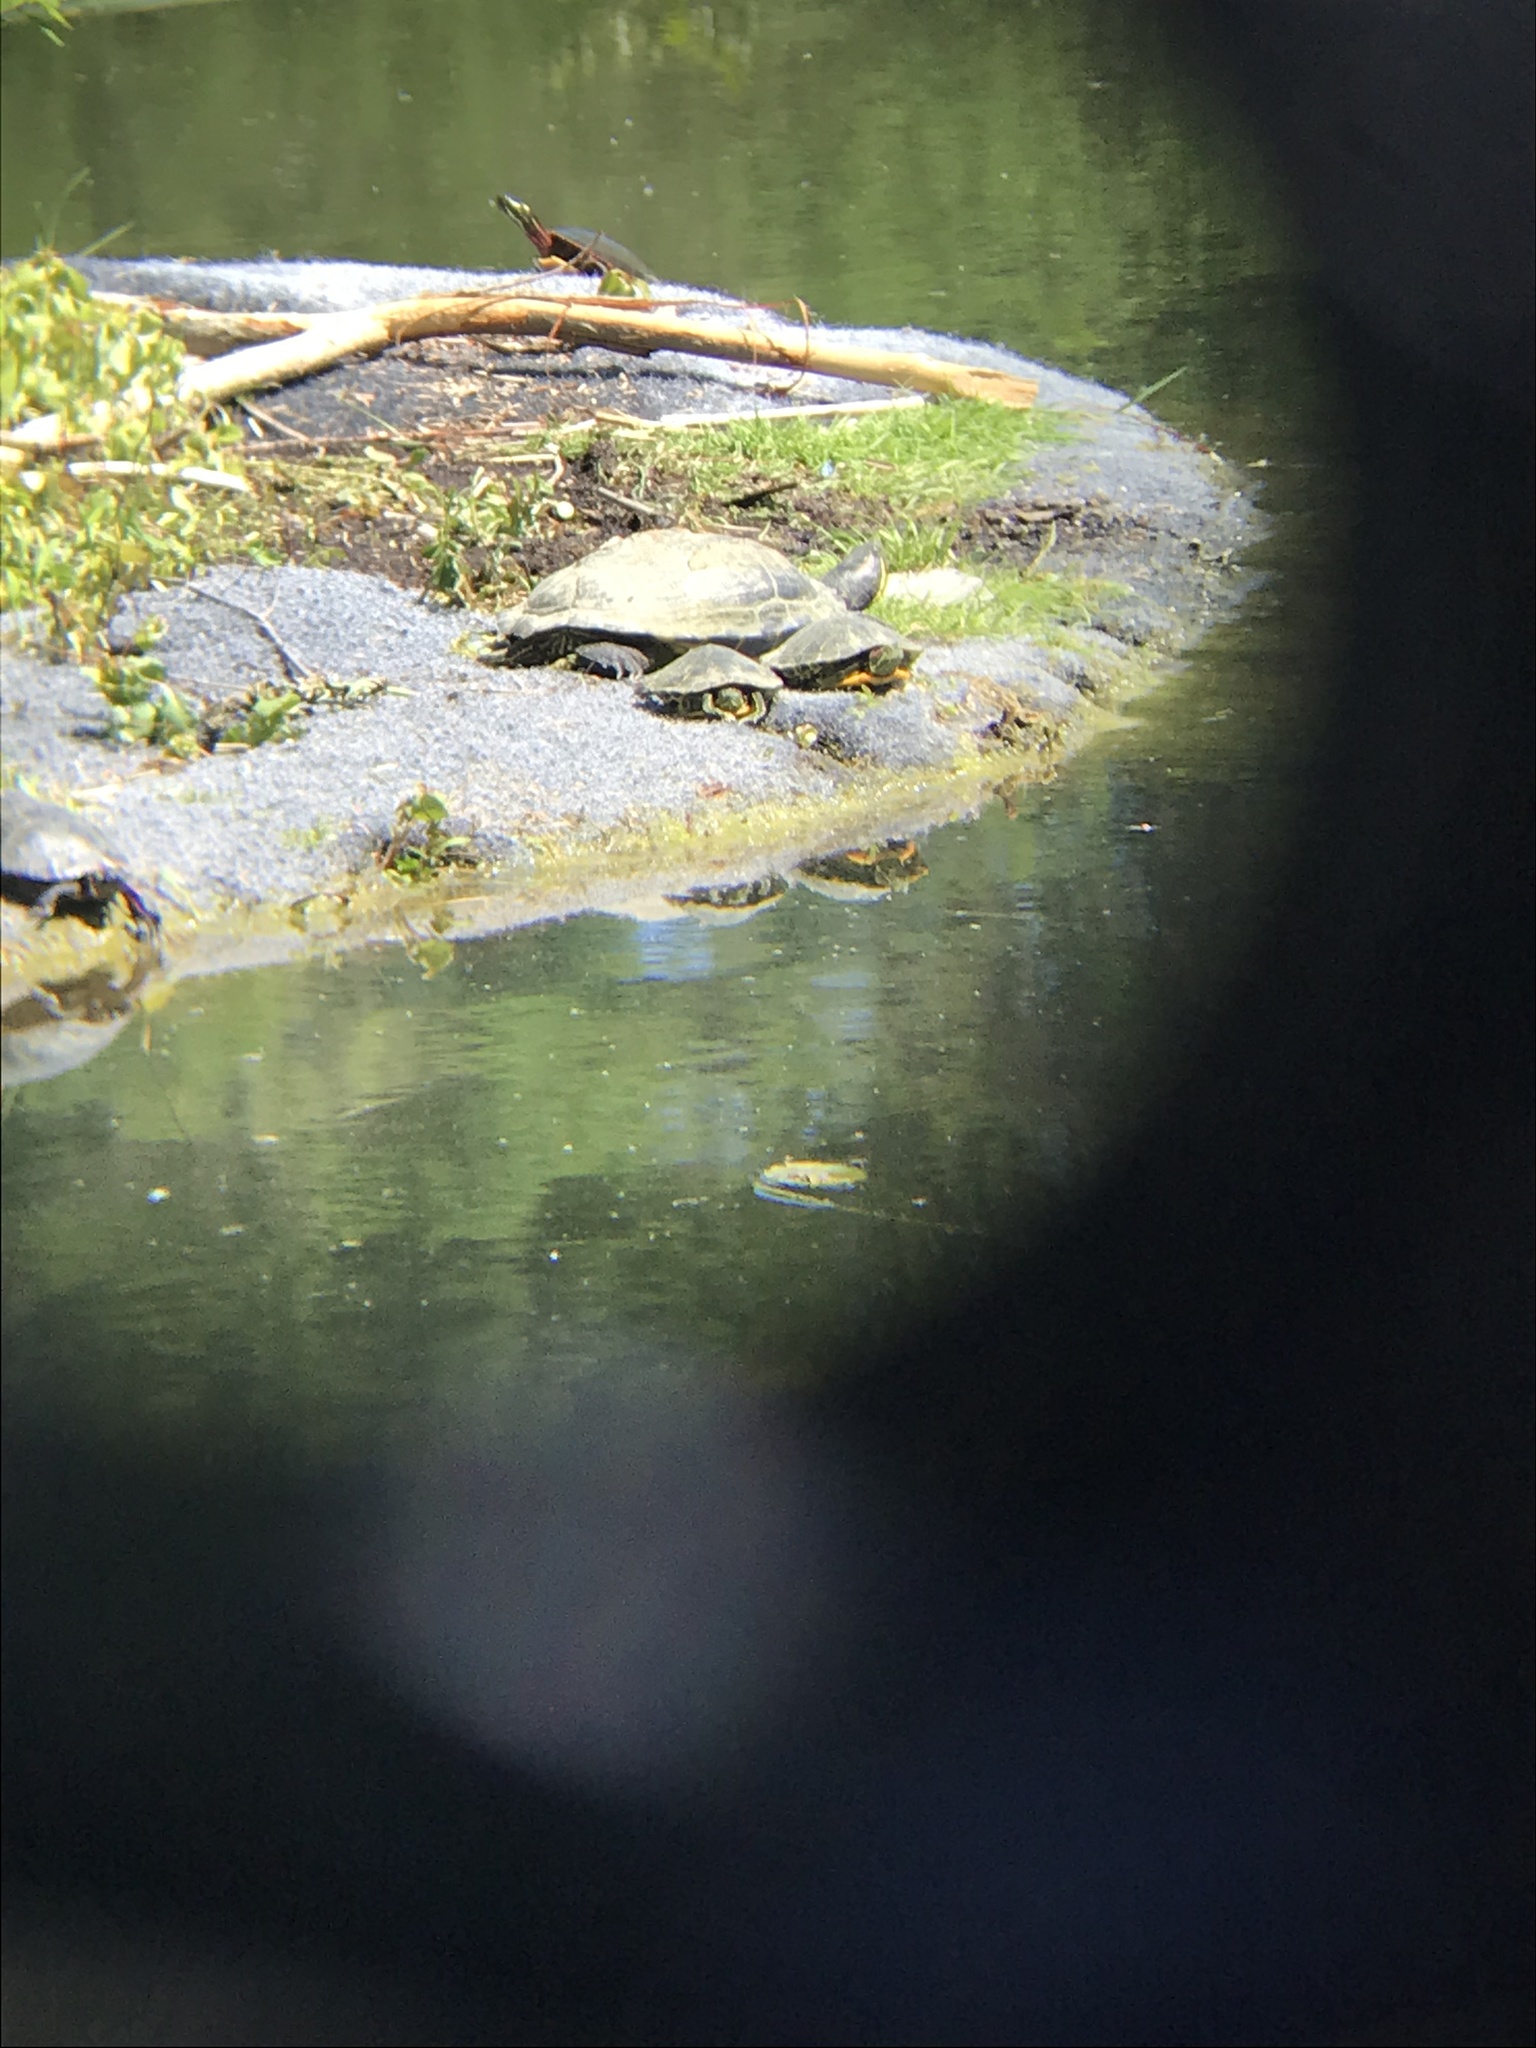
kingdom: Animalia
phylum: Chordata
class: Testudines
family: Emydidae
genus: Trachemys
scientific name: Trachemys scripta
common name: Slider
